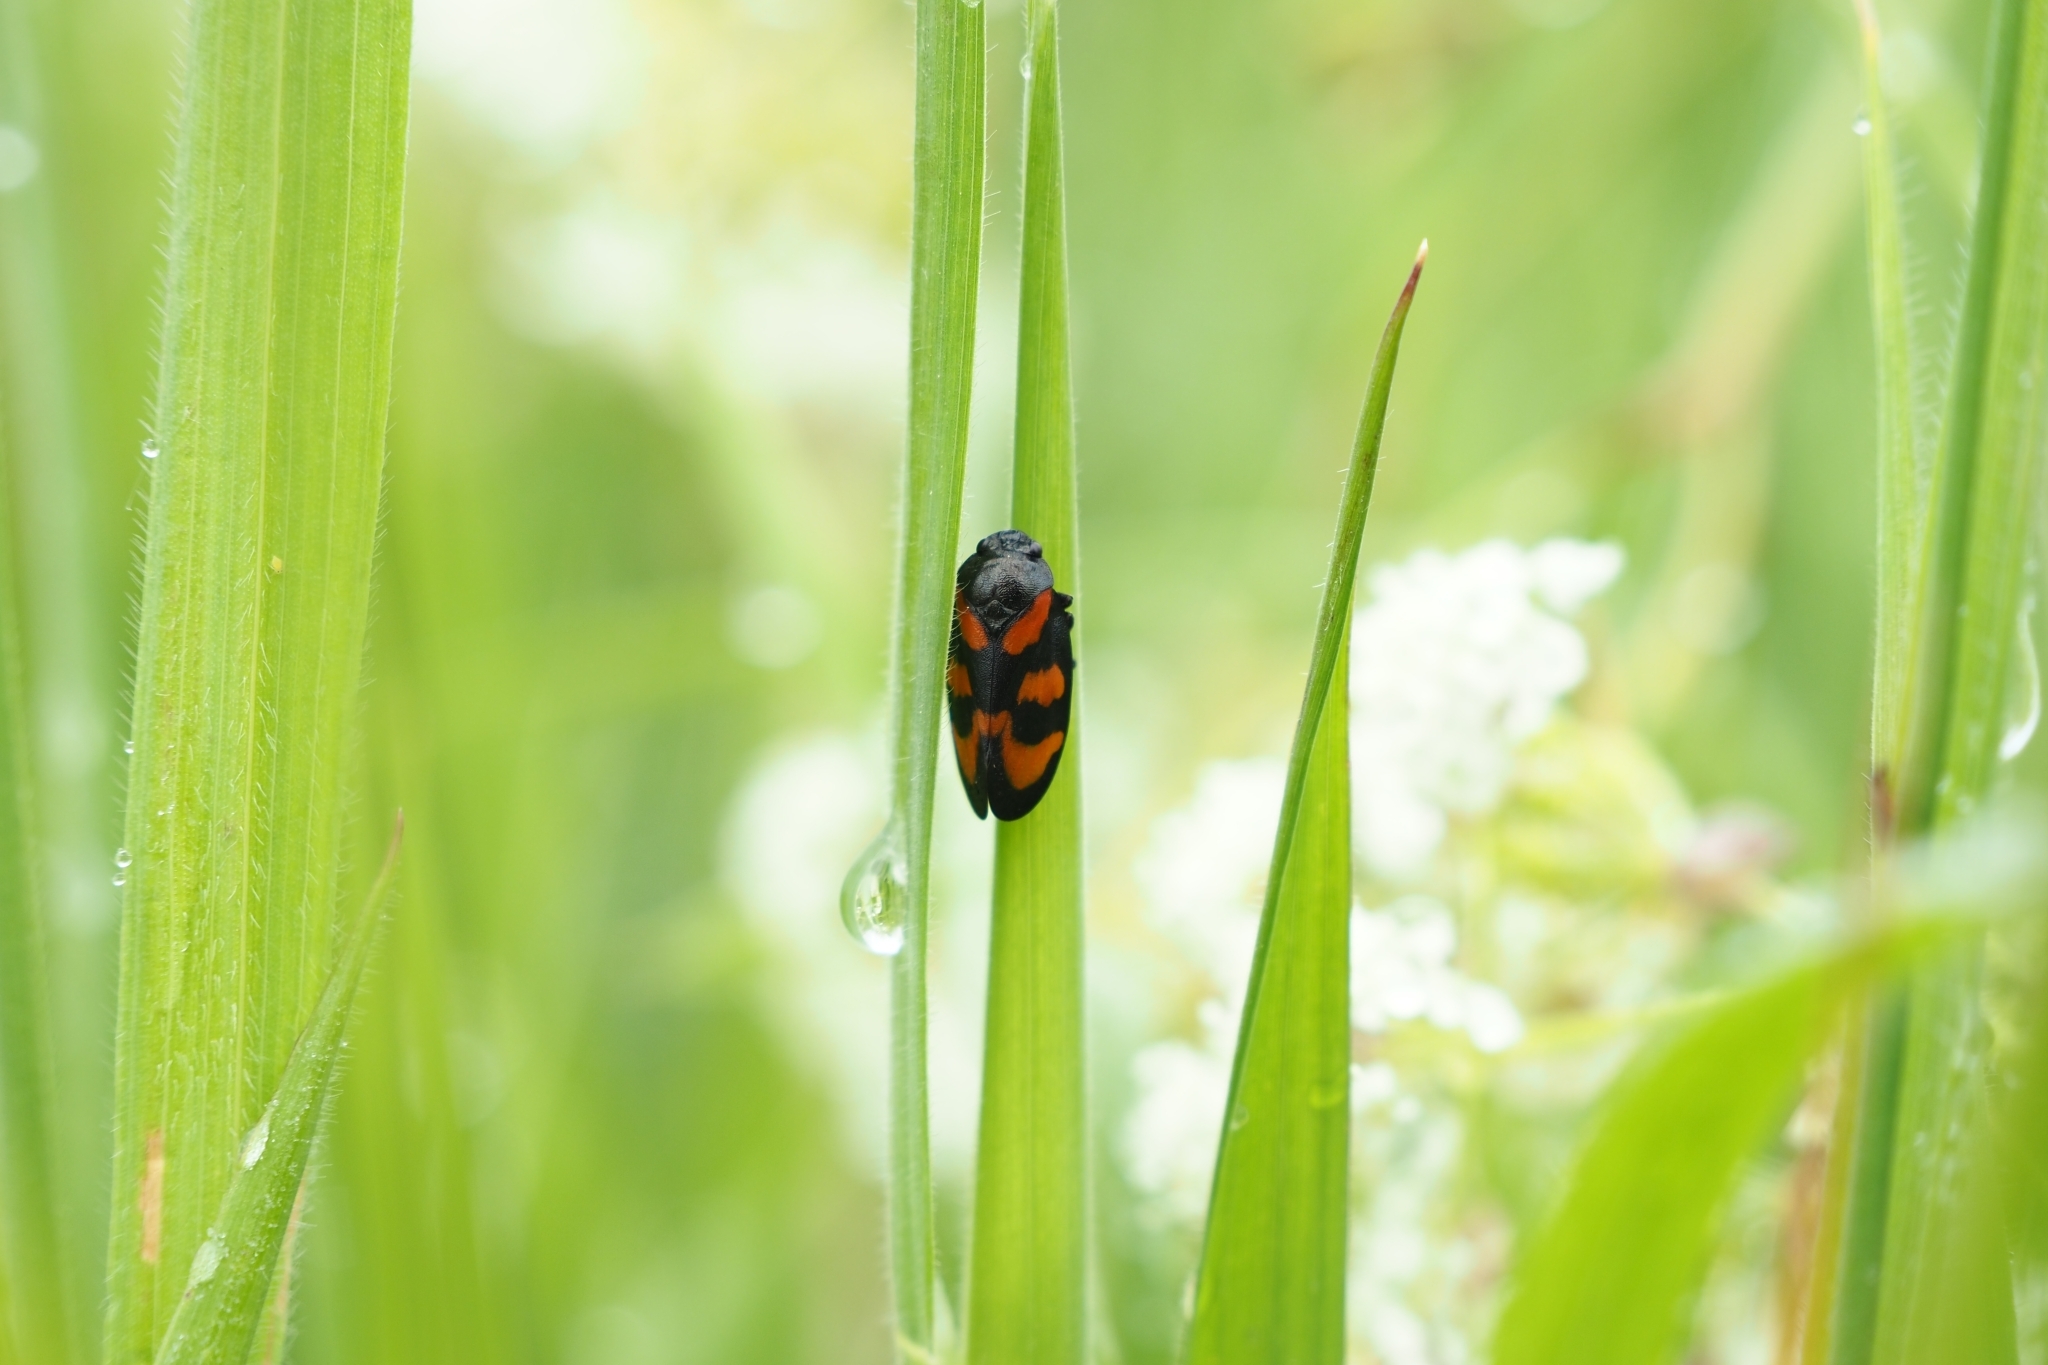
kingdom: Animalia
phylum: Arthropoda
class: Insecta
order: Hemiptera
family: Cercopidae
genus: Cercopis
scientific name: Cercopis vulnerata
